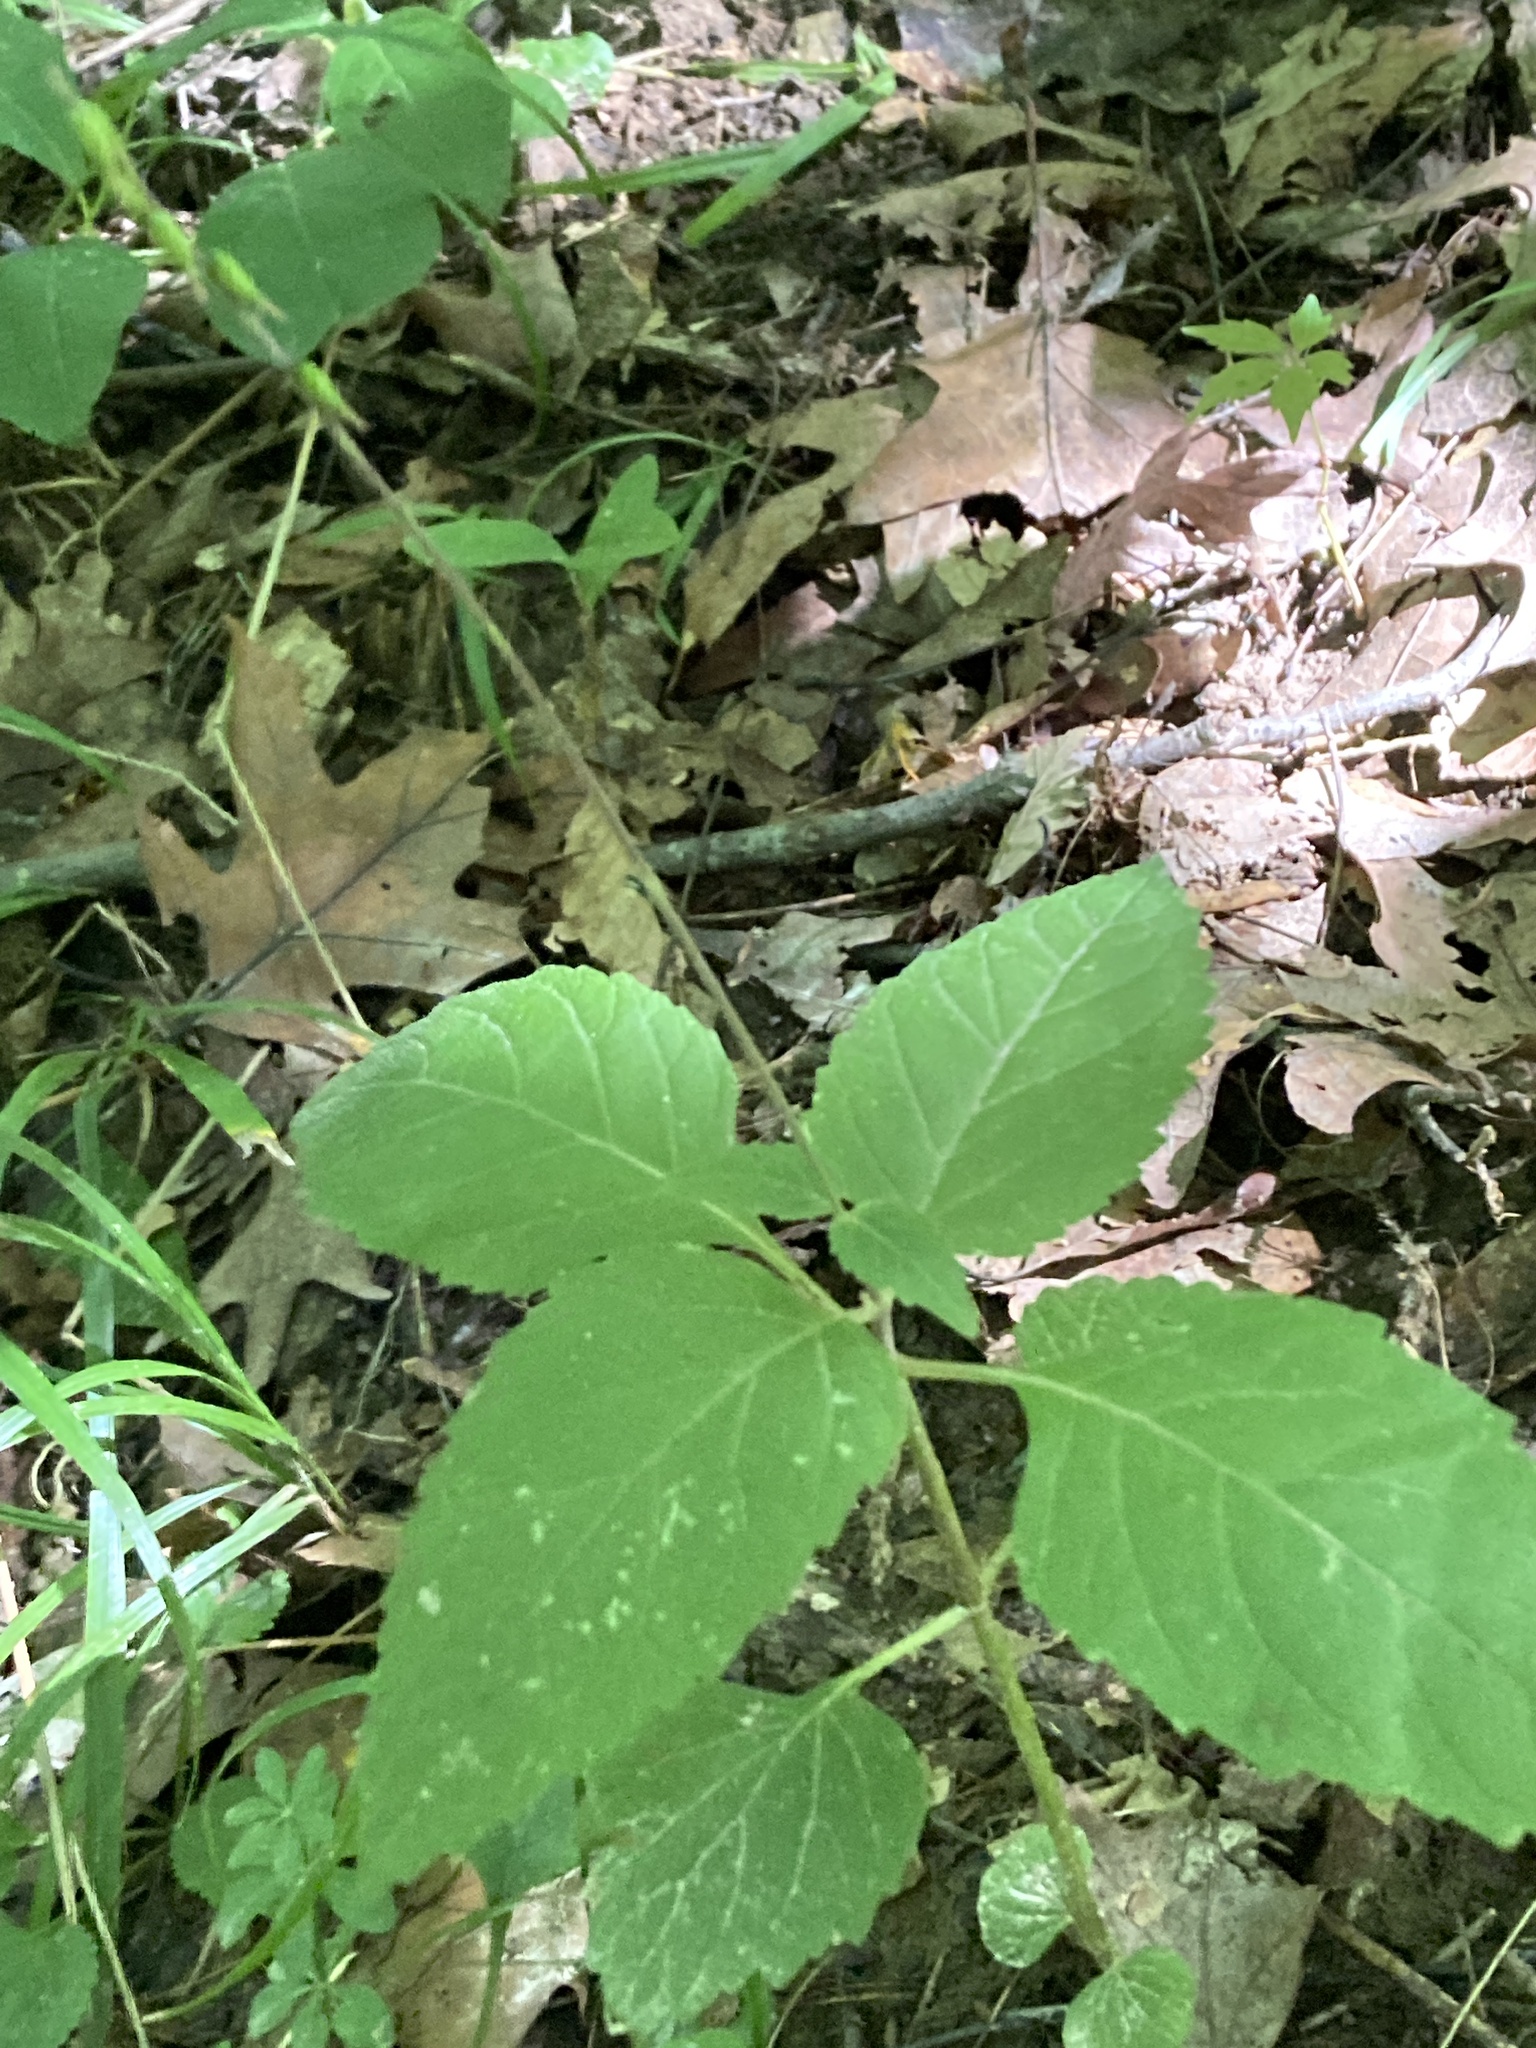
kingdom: Plantae
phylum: Tracheophyta
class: Magnoliopsida
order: Lamiales
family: Phrymaceae
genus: Phryma
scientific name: Phryma leptostachya
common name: American lopseed
